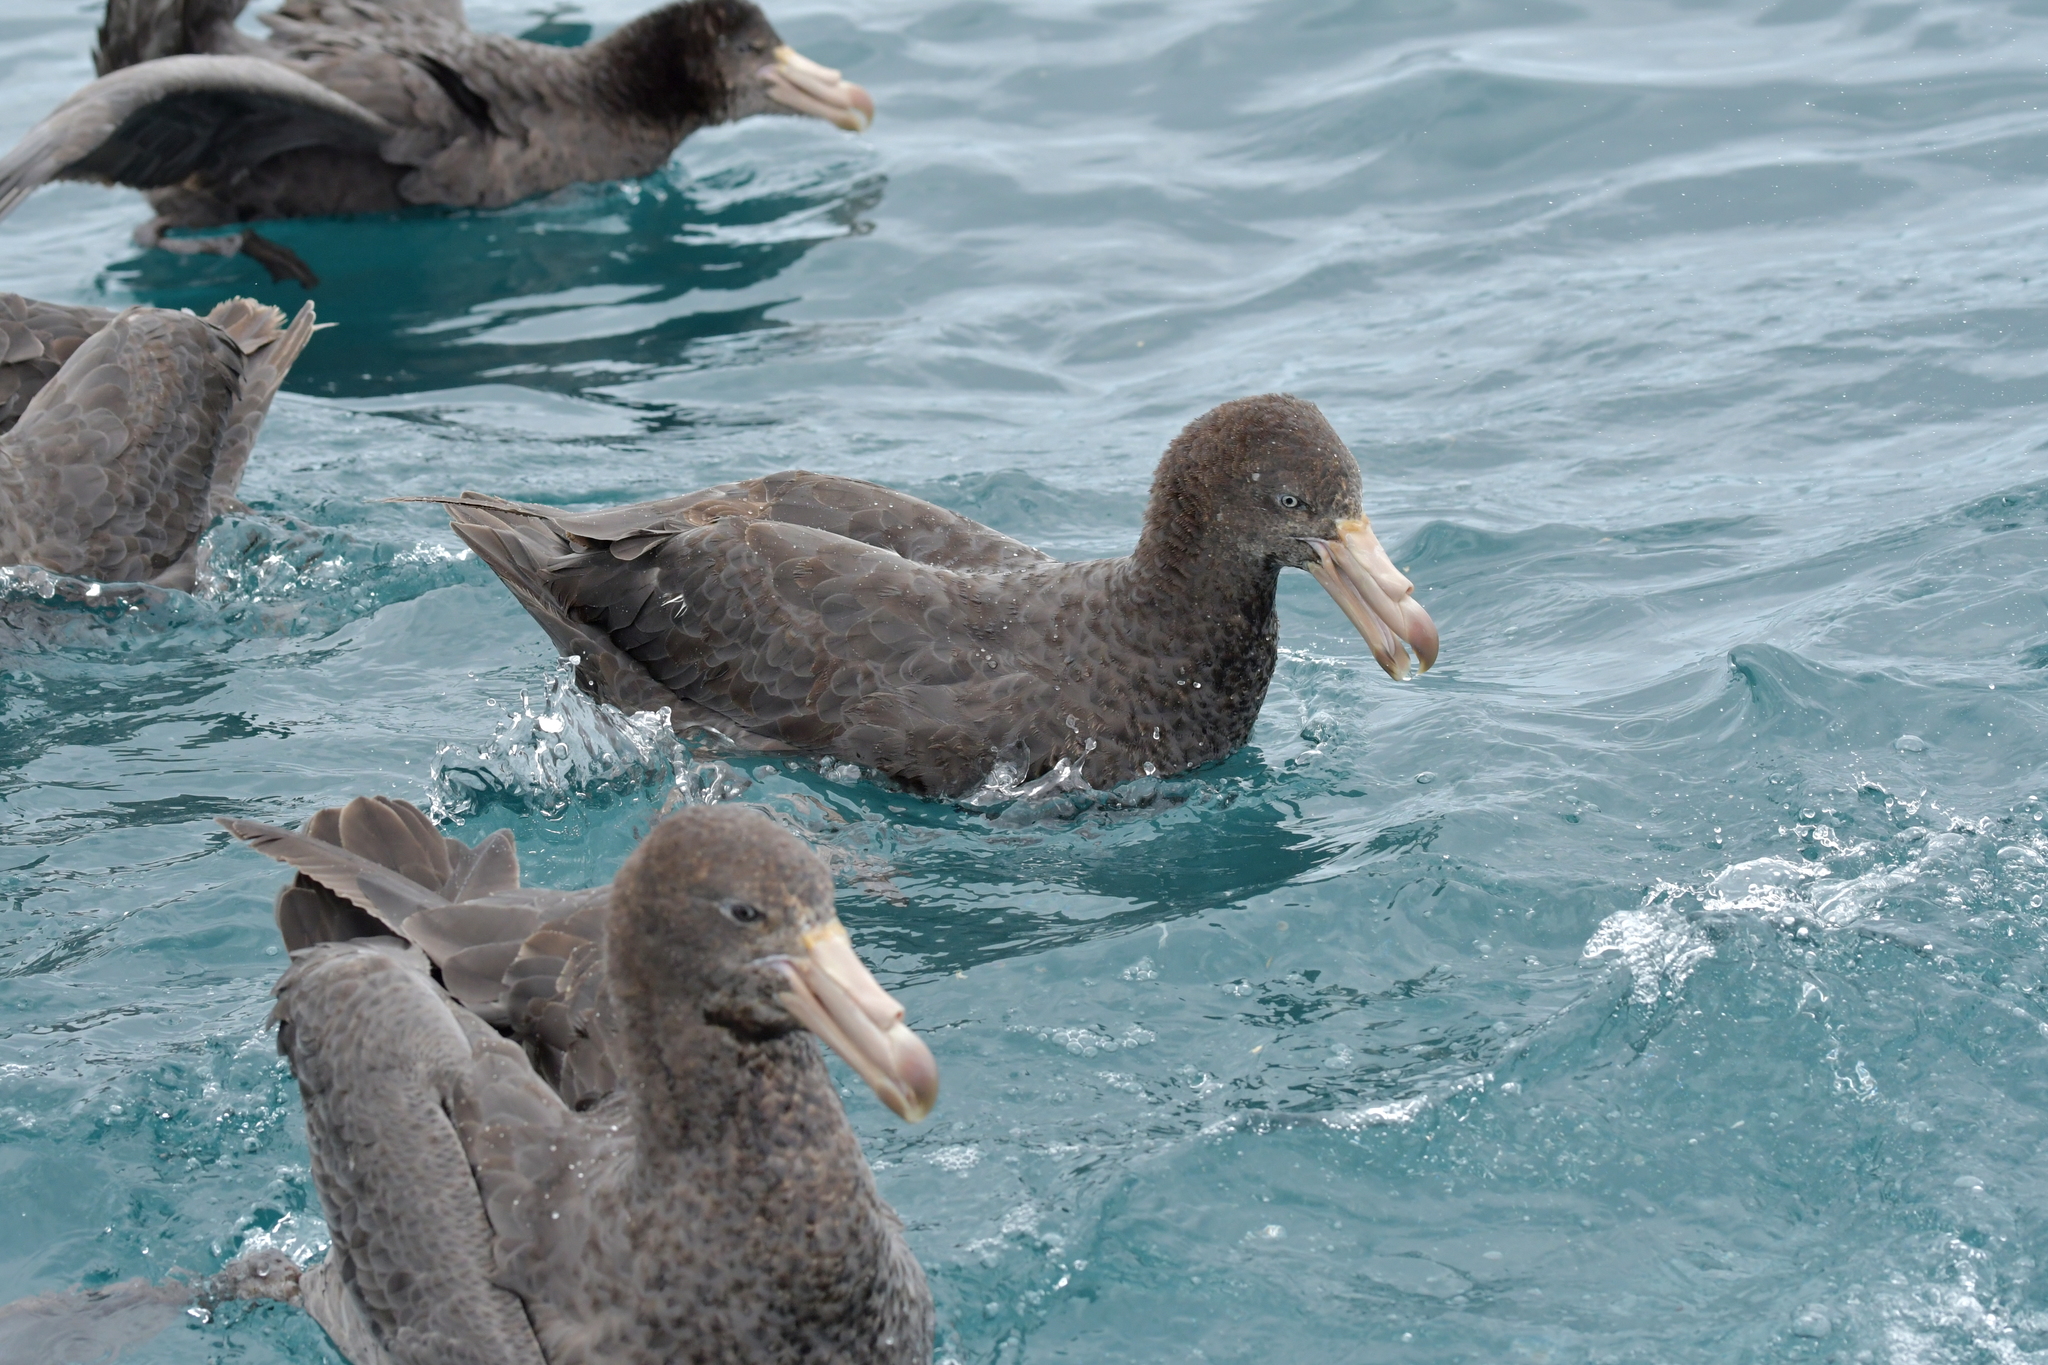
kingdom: Animalia
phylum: Chordata
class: Aves
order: Procellariiformes
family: Procellariidae
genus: Macronectes
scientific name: Macronectes halli
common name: Northern giant petrel
